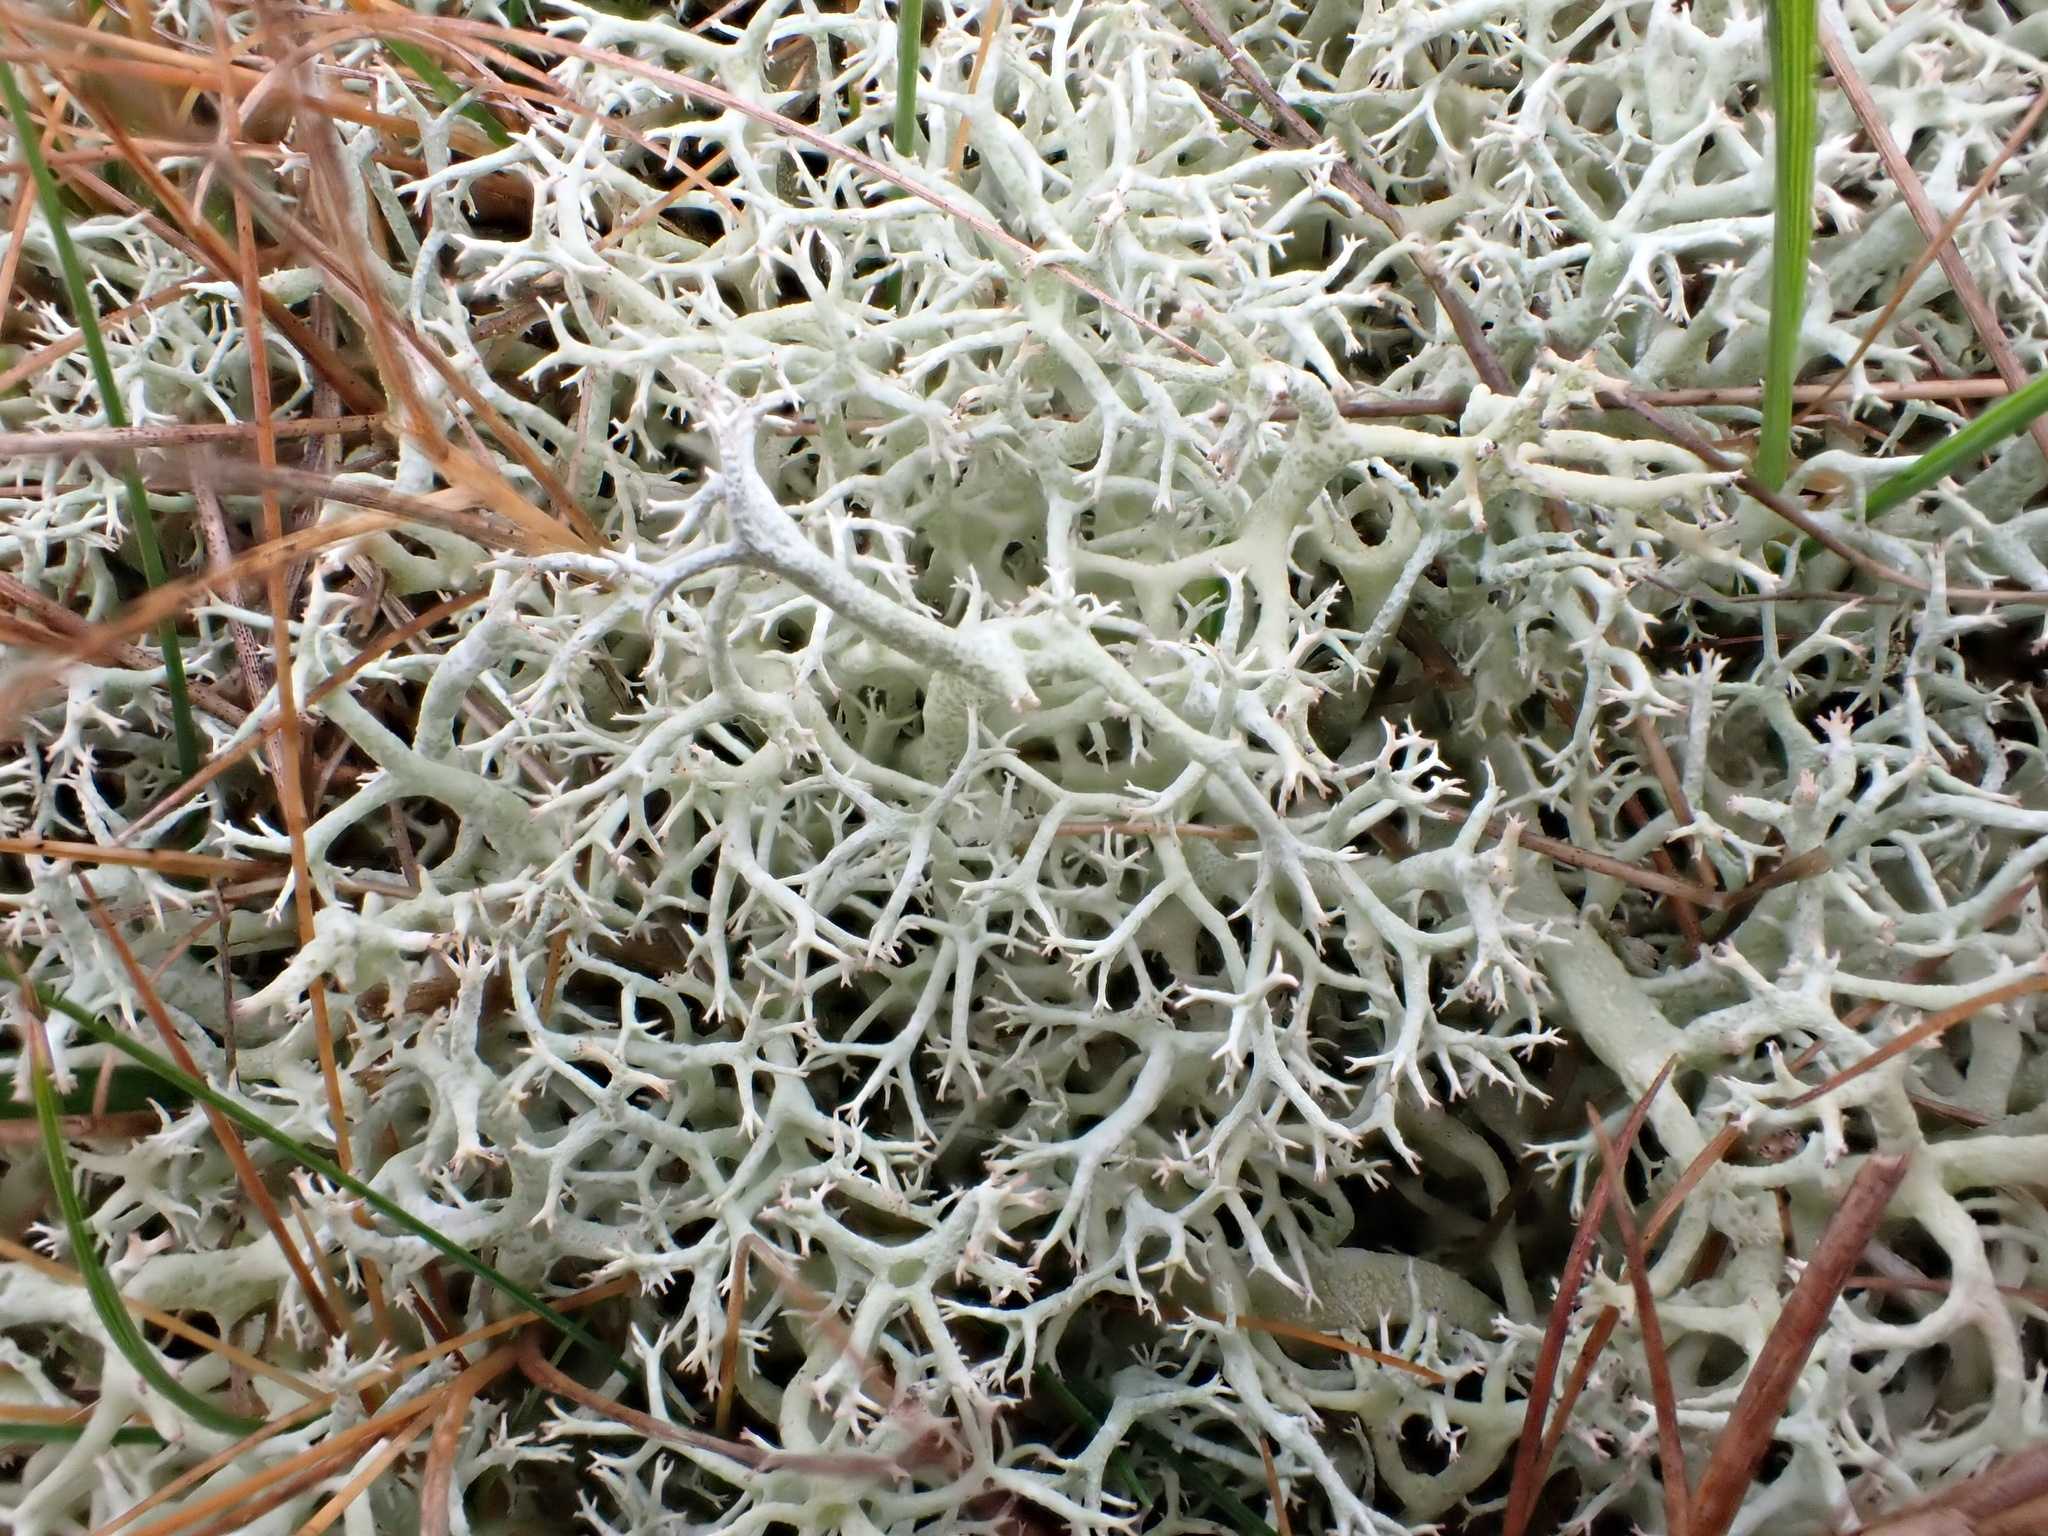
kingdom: Fungi
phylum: Ascomycota
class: Lecanoromycetes
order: Lecanorales
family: Cladoniaceae
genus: Cladonia
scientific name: Cladonia portentosa
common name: Reindeer lichen
